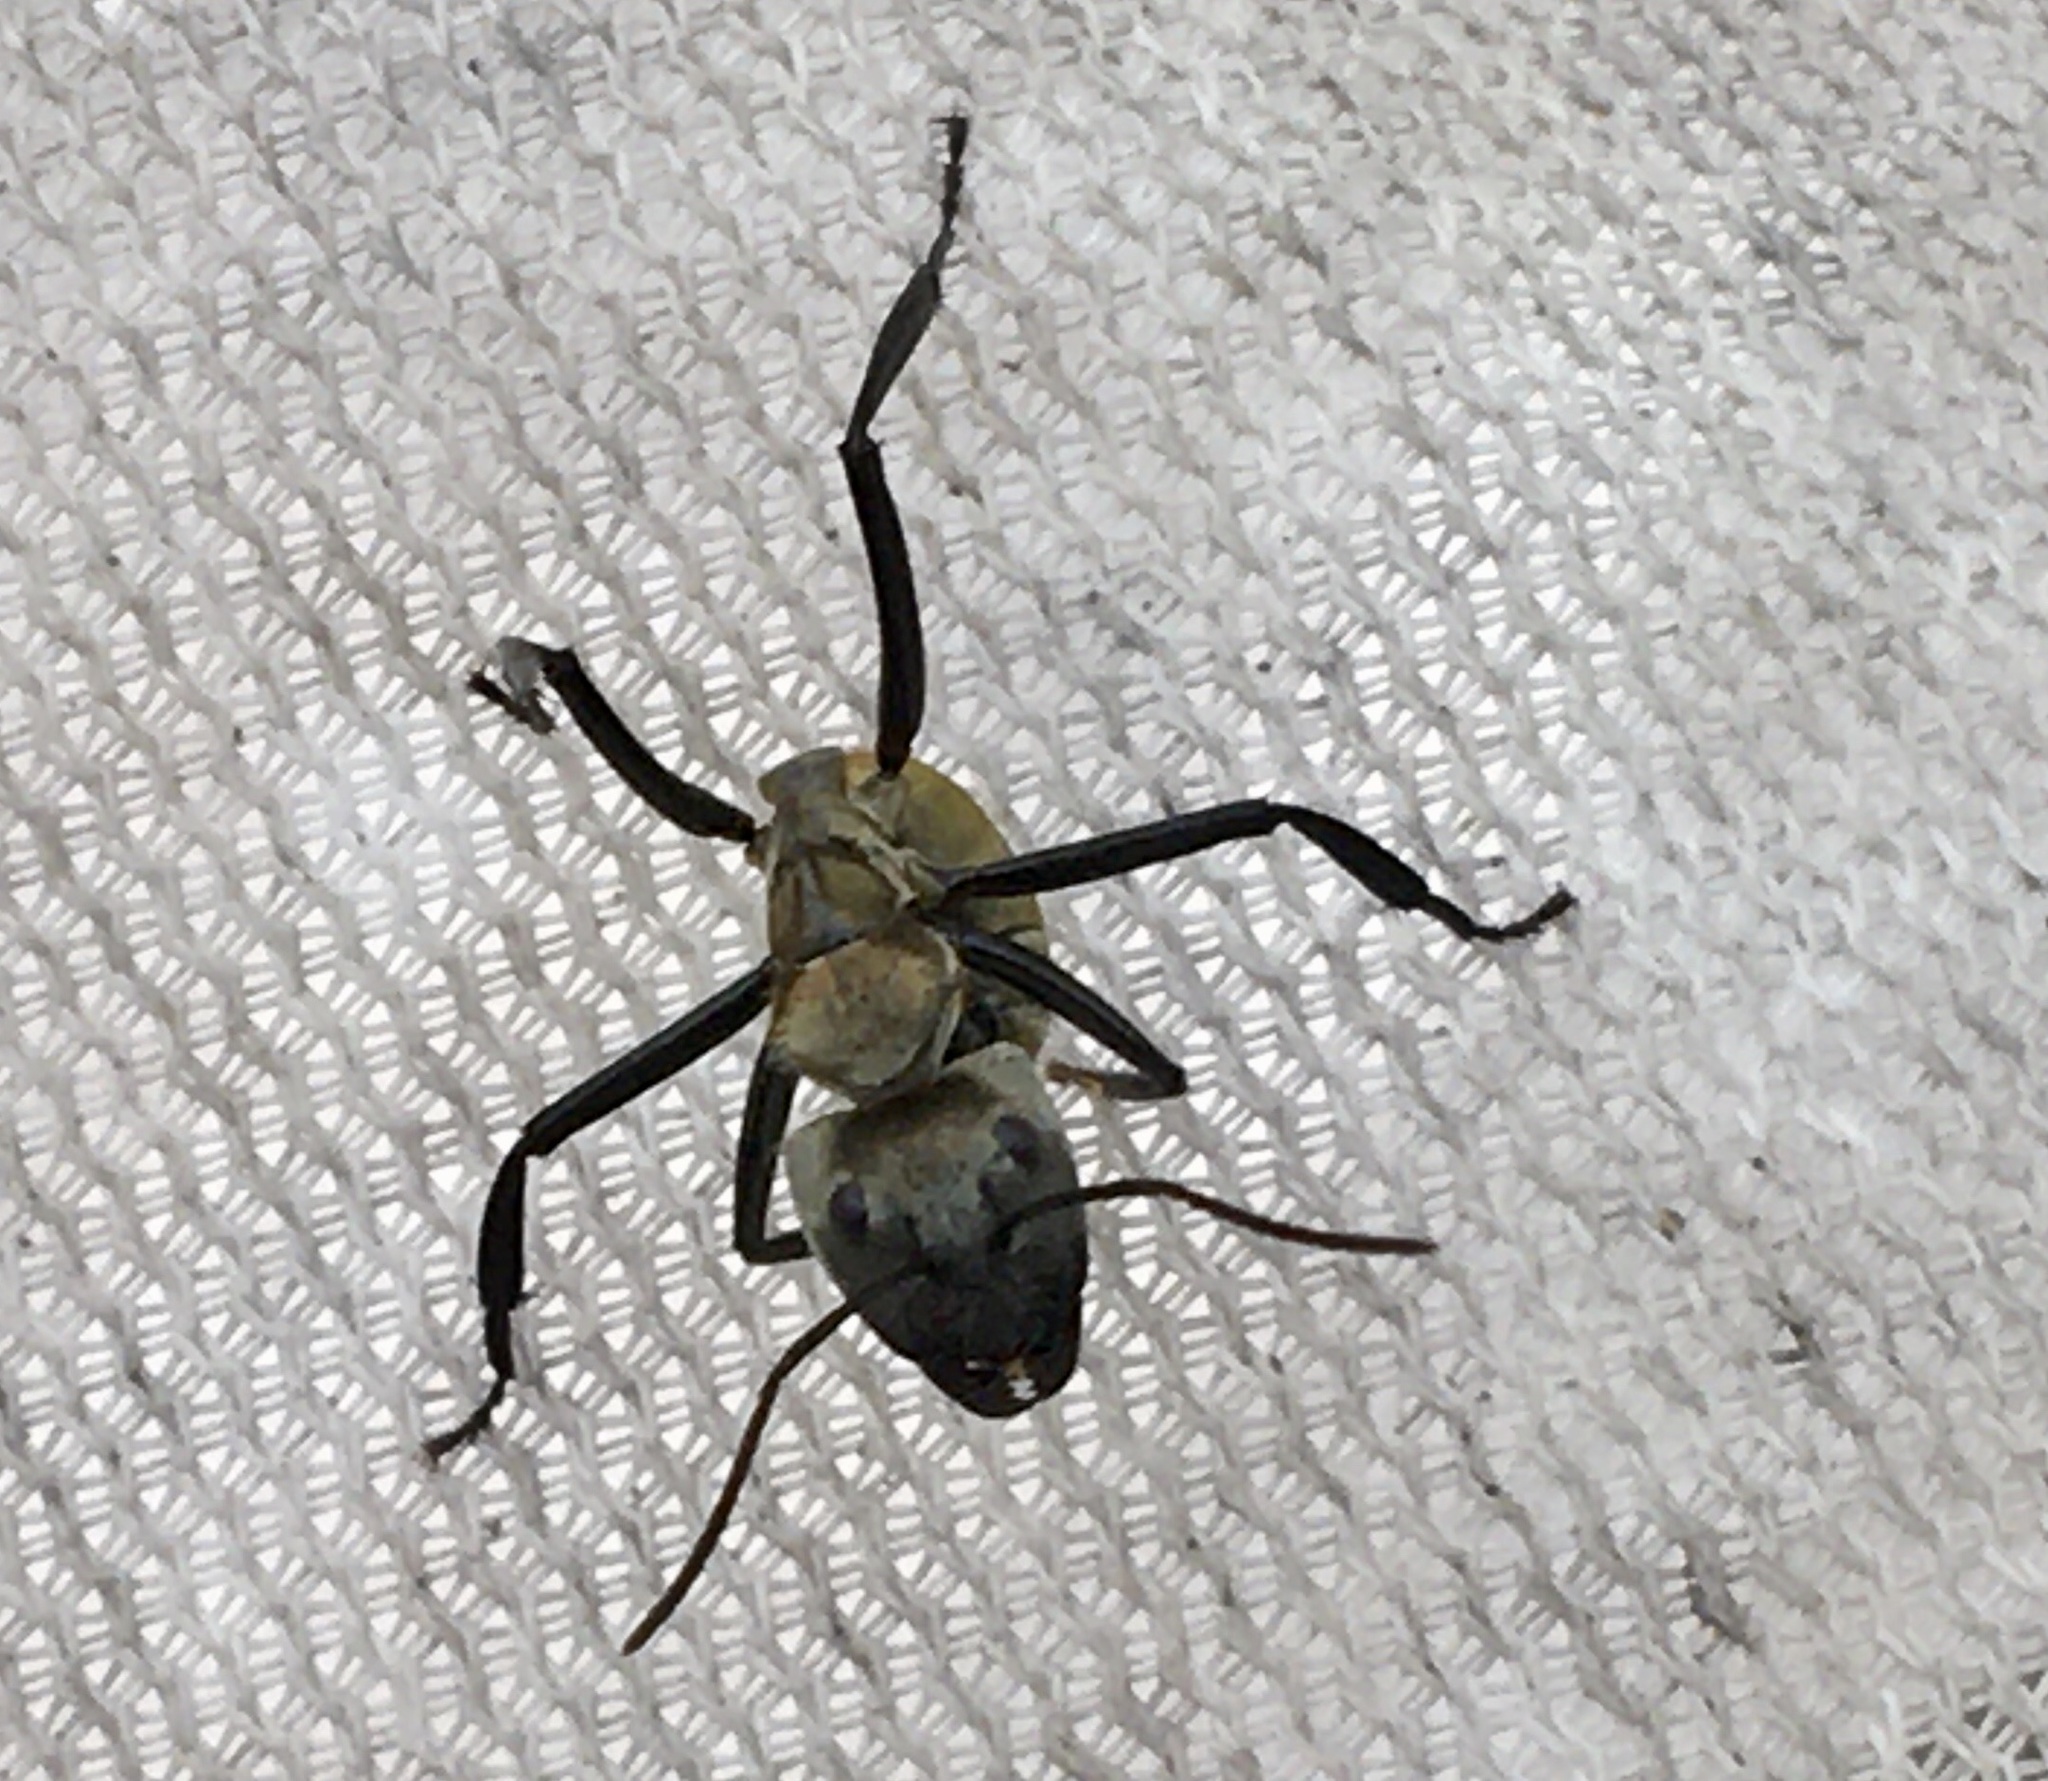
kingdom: Animalia
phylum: Arthropoda
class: Insecta
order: Hymenoptera
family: Formicidae
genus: Camponotus
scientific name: Camponotus sericeiventris
